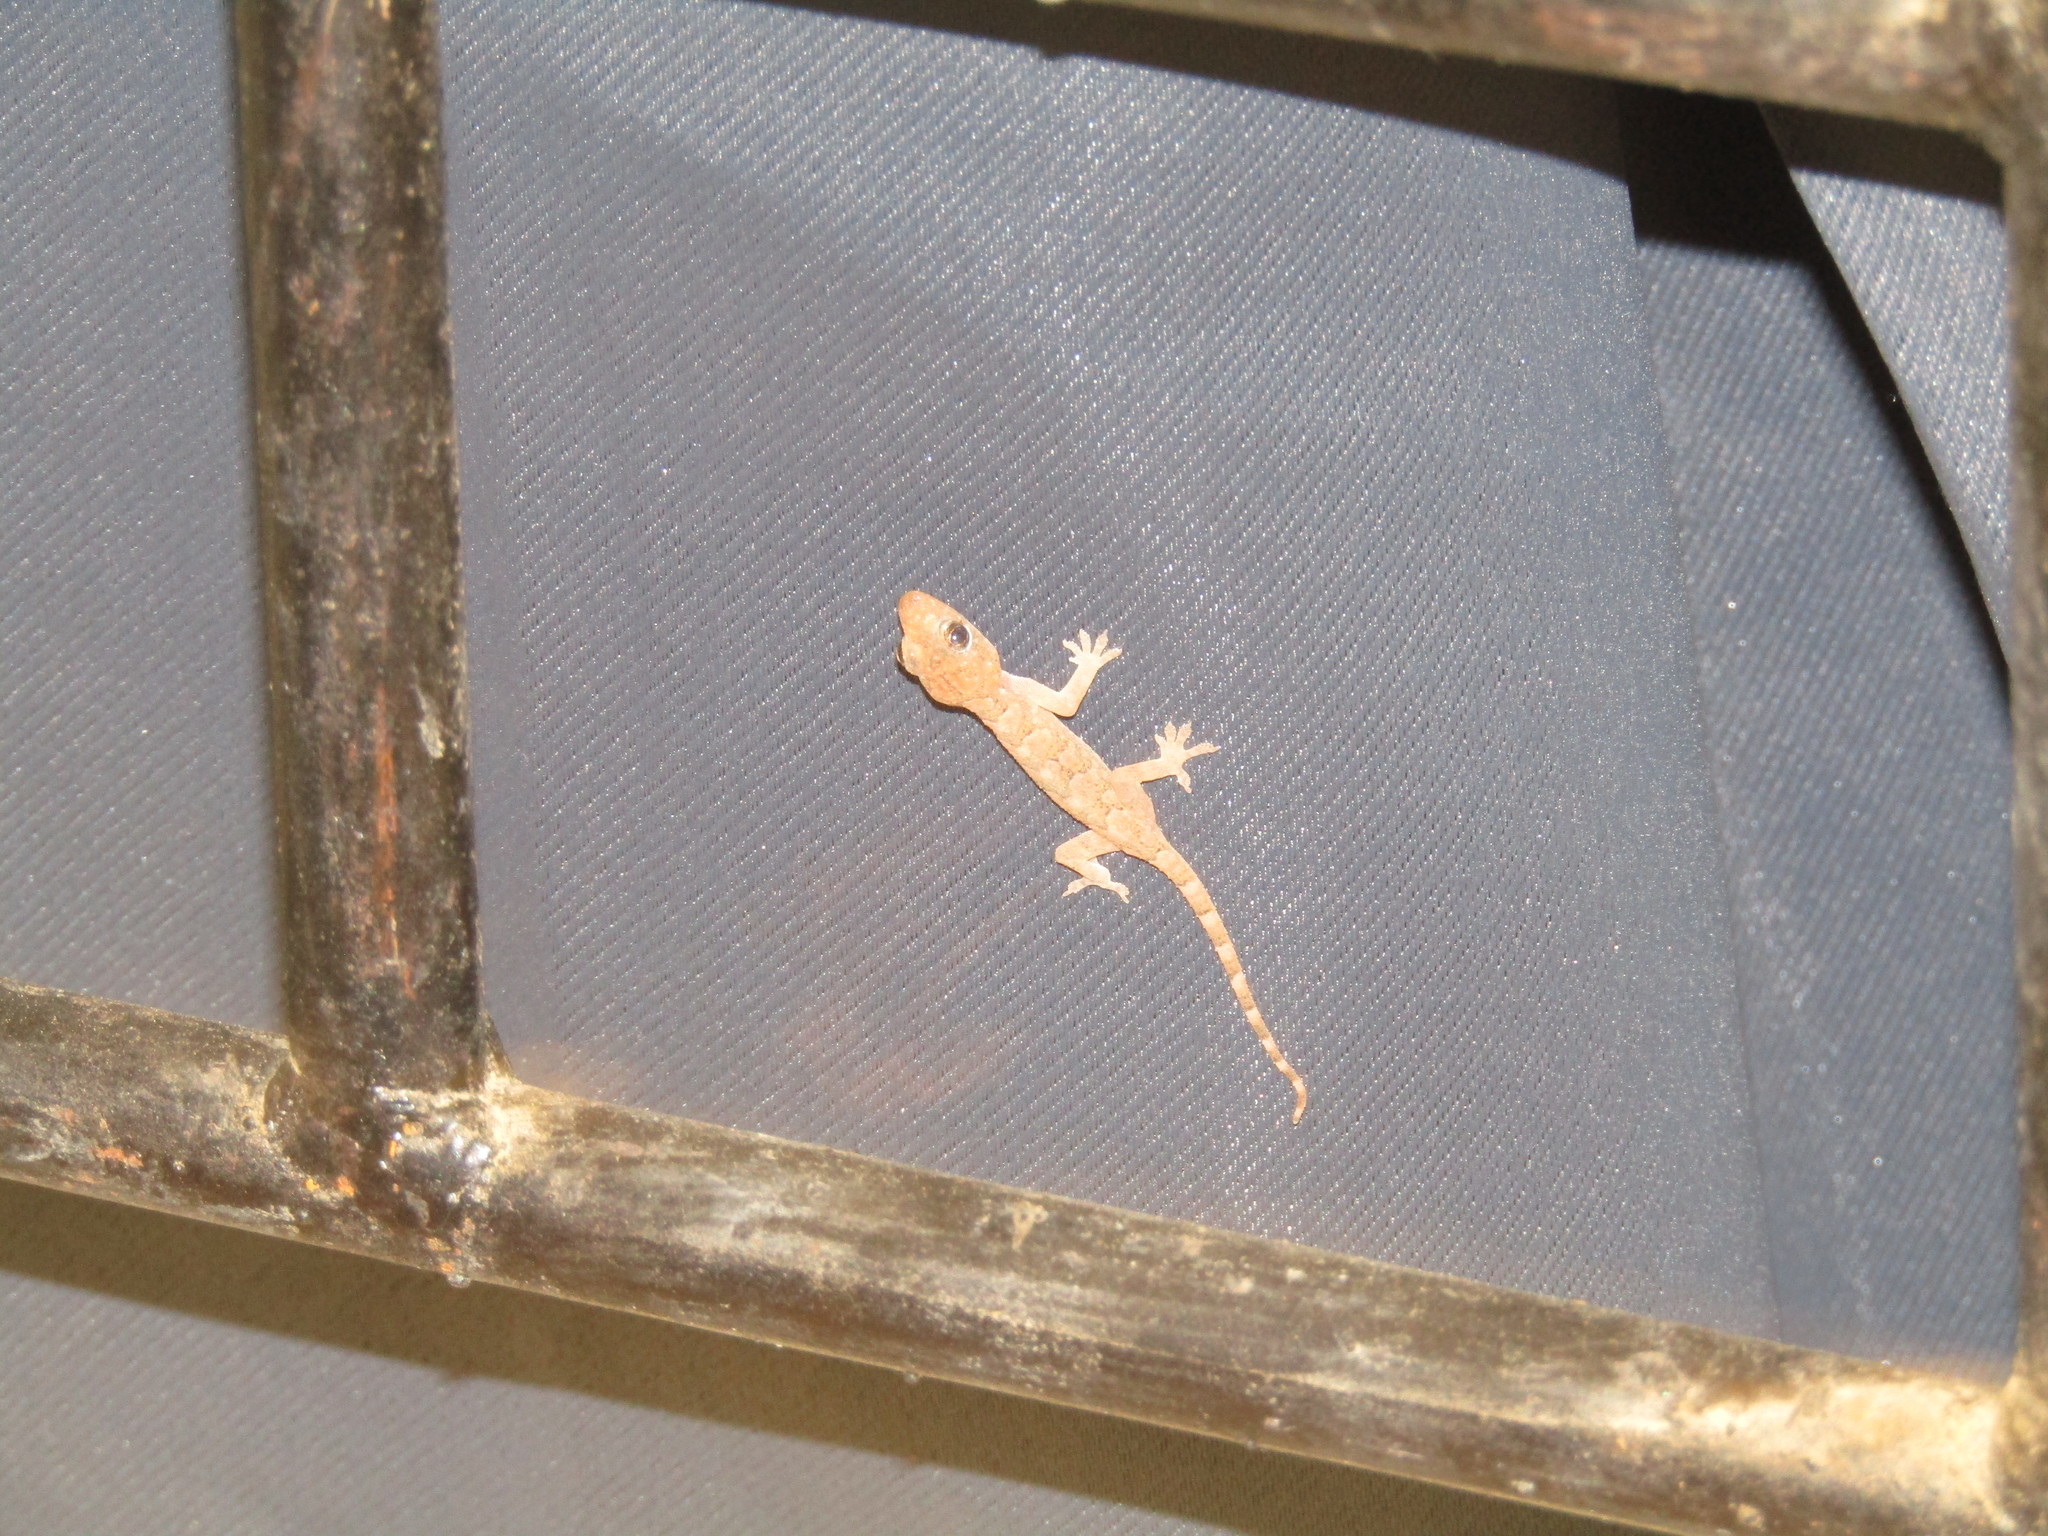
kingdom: Animalia
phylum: Chordata
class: Squamata
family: Gekkonidae
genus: Hemidactylus
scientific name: Hemidactylus mabouia
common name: House gecko
